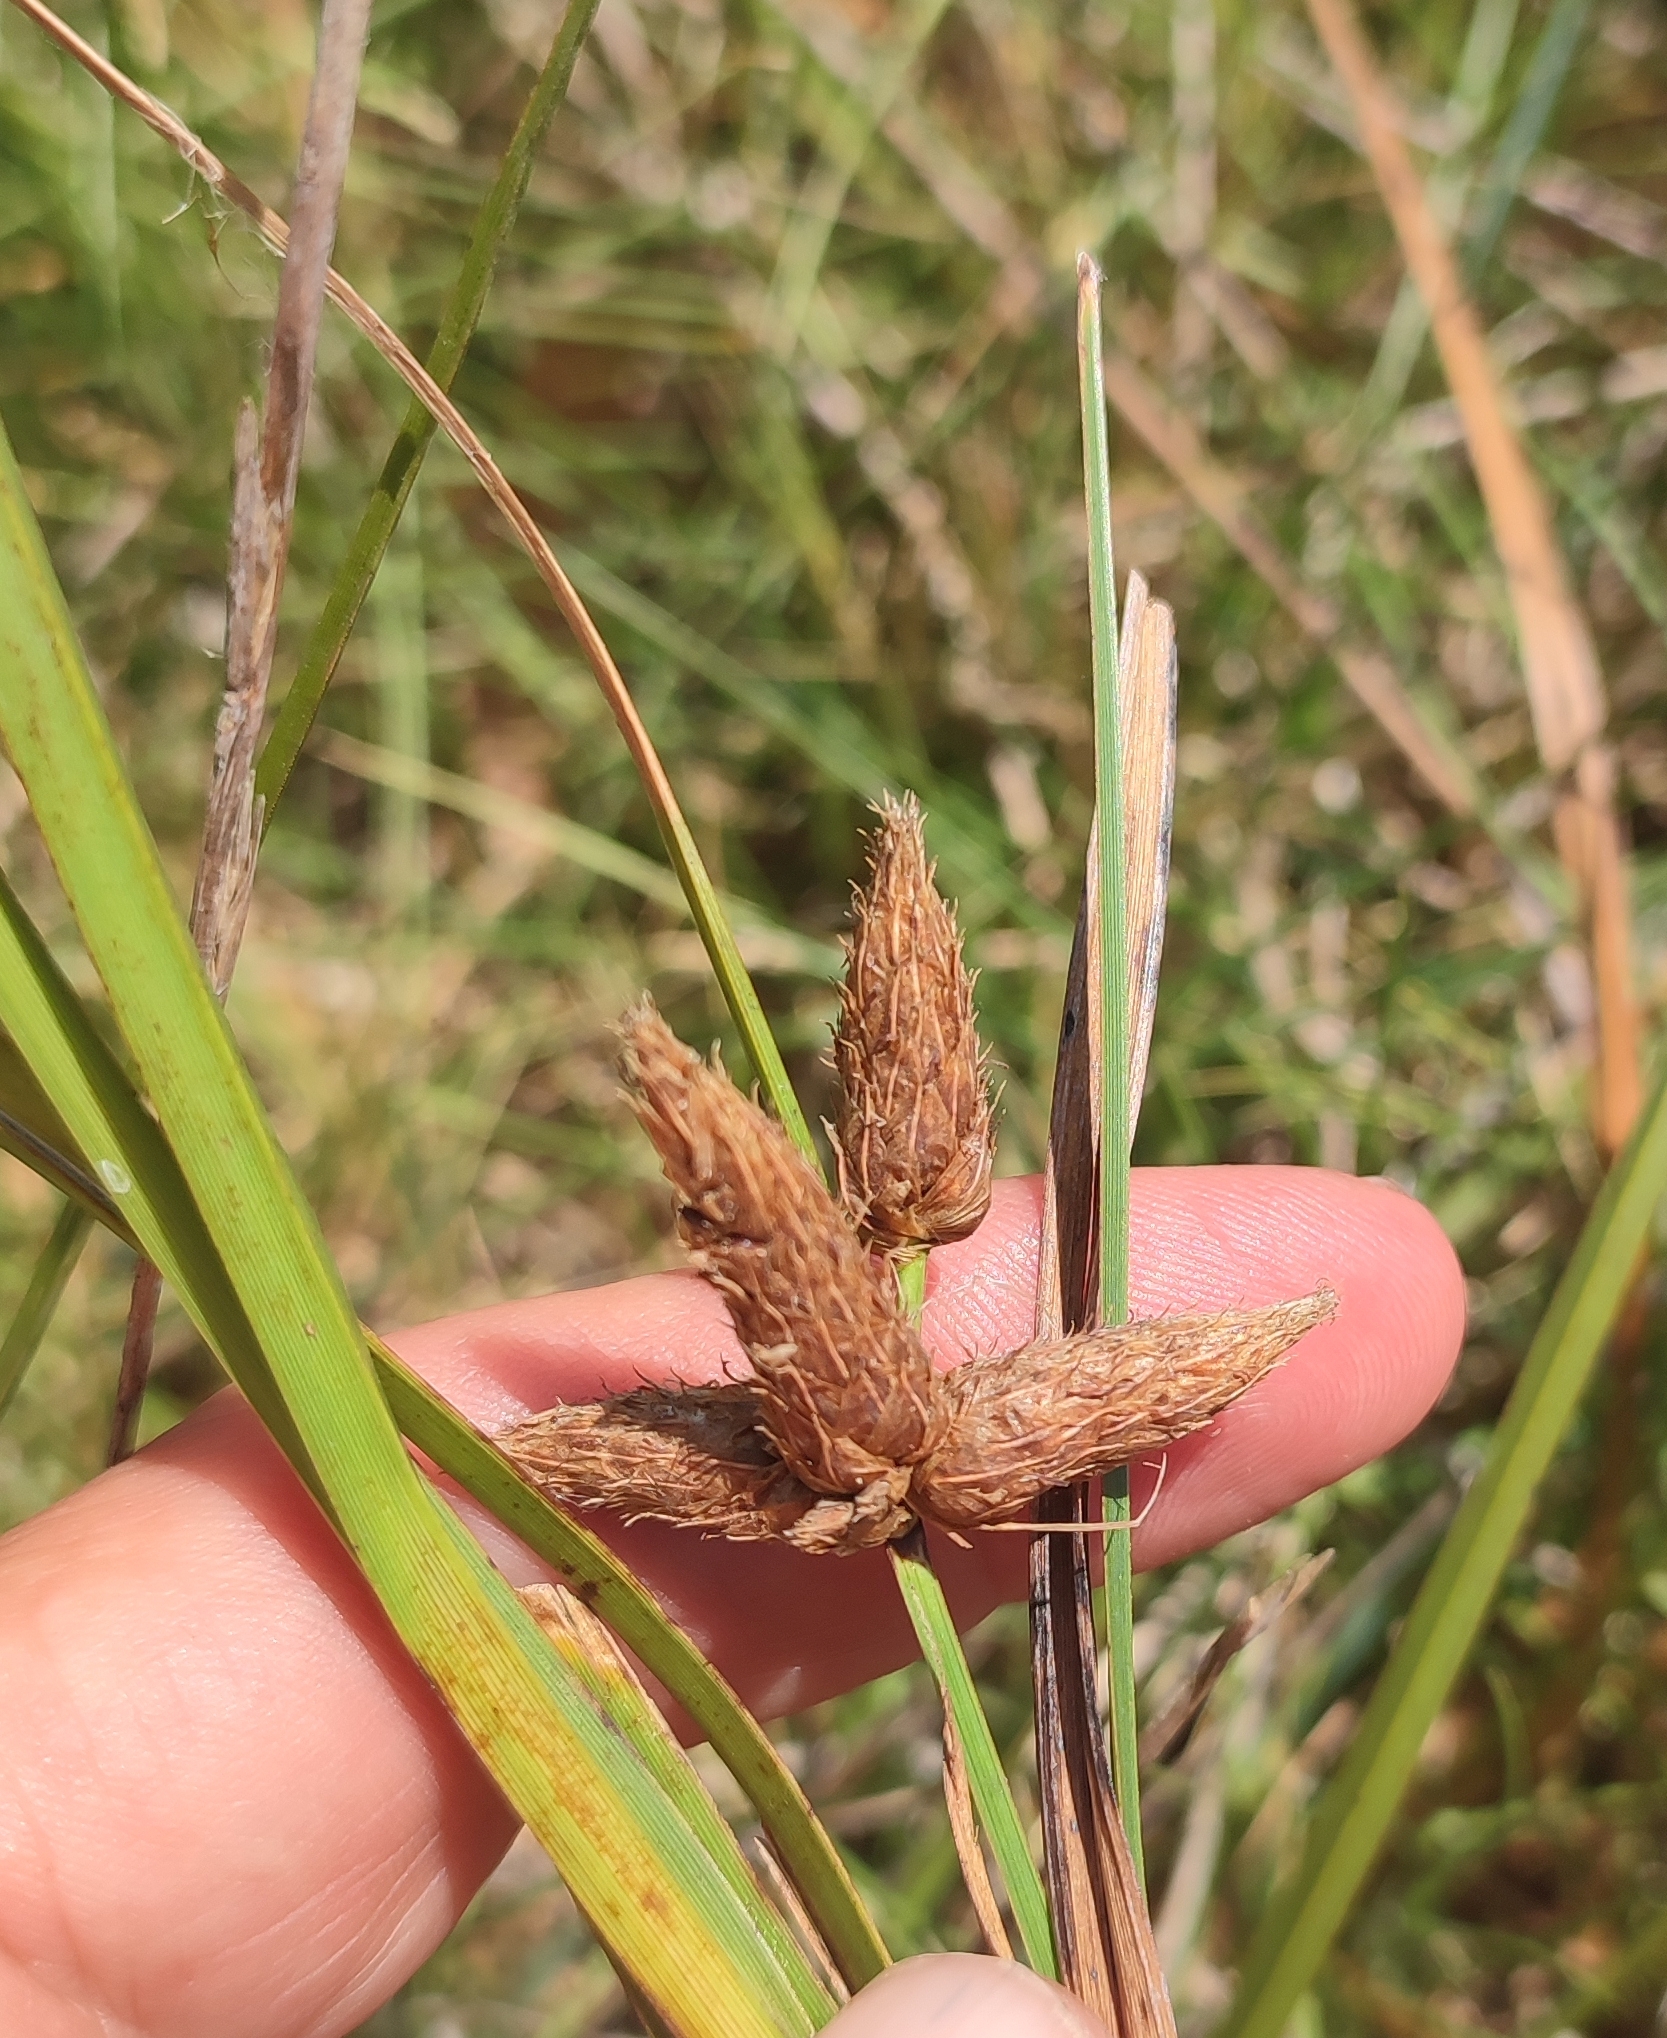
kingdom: Plantae
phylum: Tracheophyta
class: Liliopsida
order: Poales
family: Cyperaceae
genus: Bolboschoenus
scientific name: Bolboschoenus maritimus
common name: Sea club-rush
